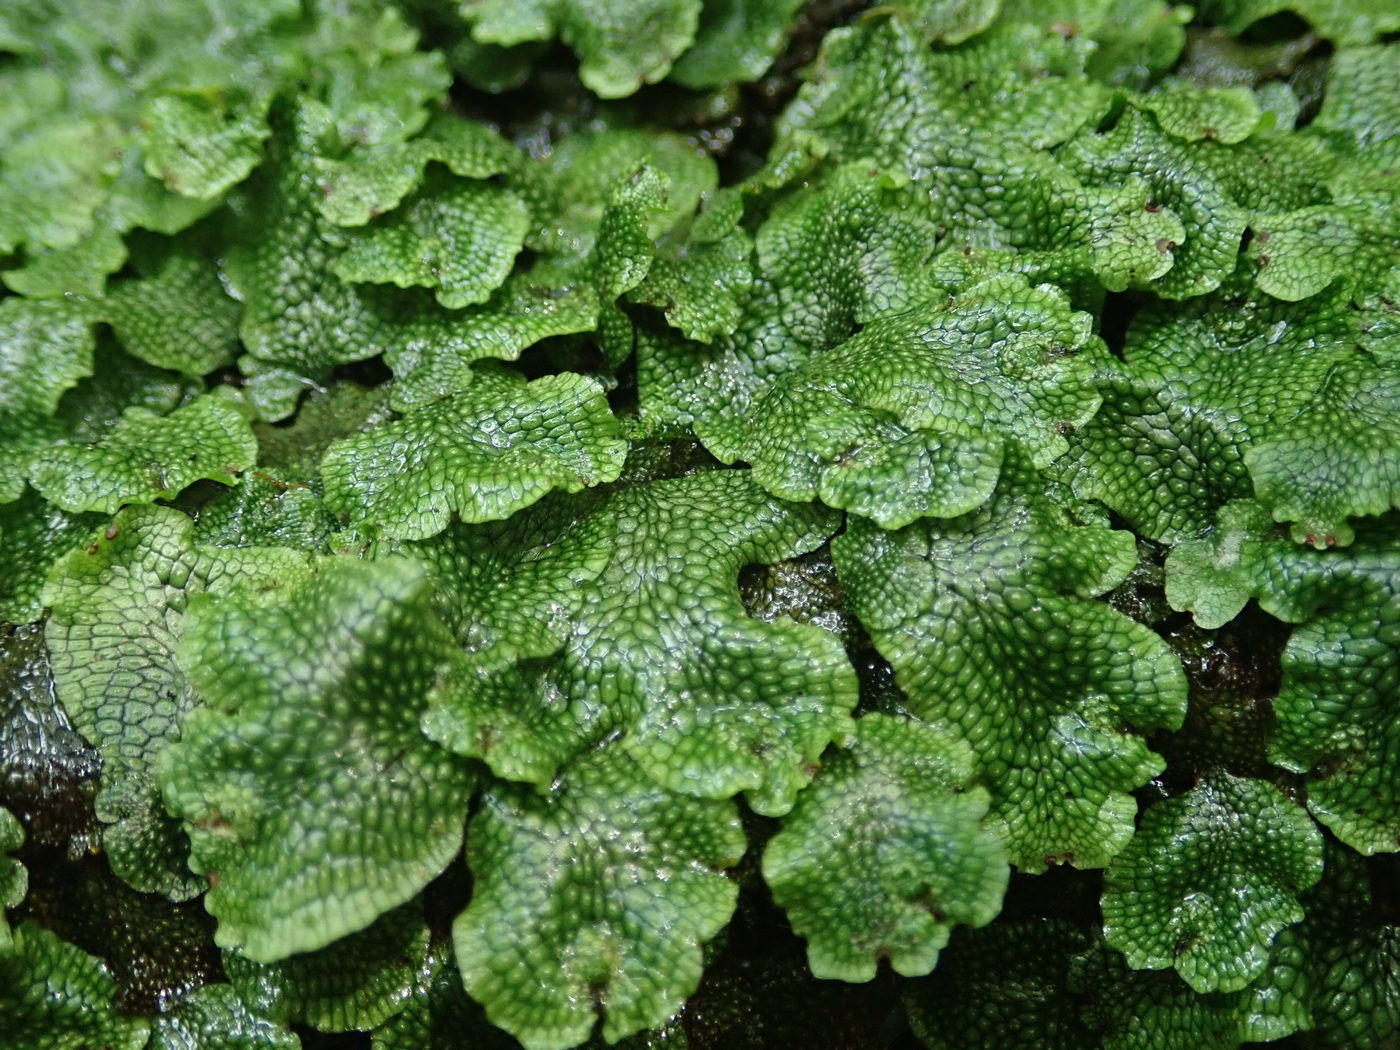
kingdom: Plantae
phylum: Marchantiophyta
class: Marchantiopsida
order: Marchantiales
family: Conocephalaceae
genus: Conocephalum
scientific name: Conocephalum salebrosum
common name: Cat-tongue liverwort
